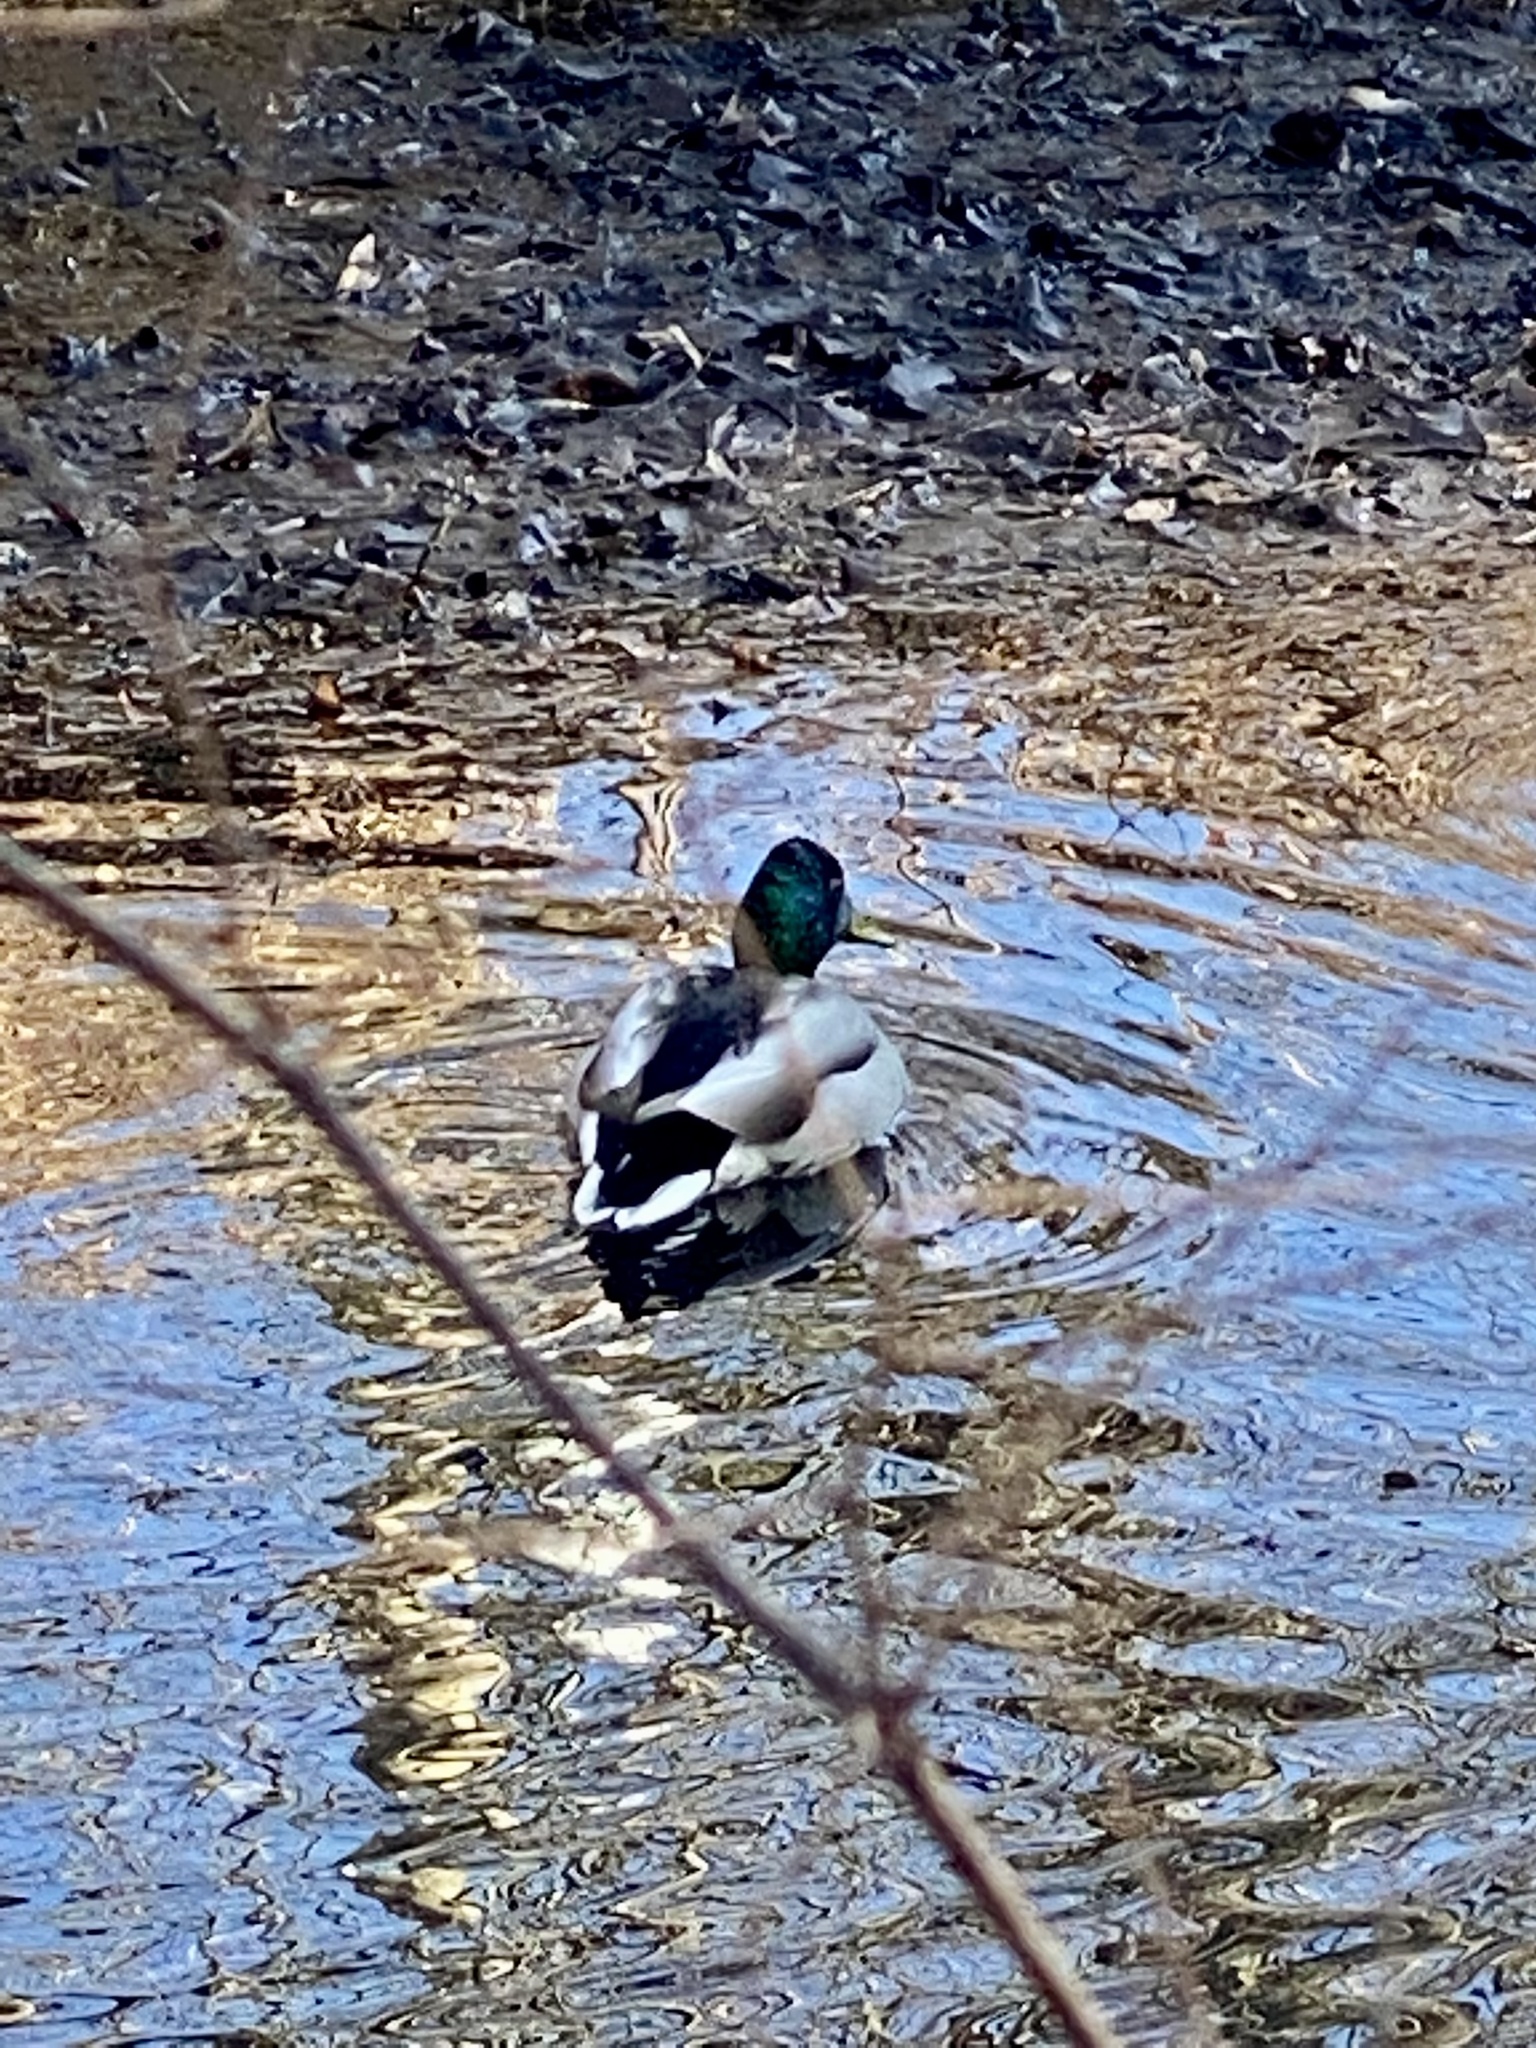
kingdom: Animalia
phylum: Chordata
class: Aves
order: Anseriformes
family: Anatidae
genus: Anas
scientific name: Anas platyrhynchos
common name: Mallard
